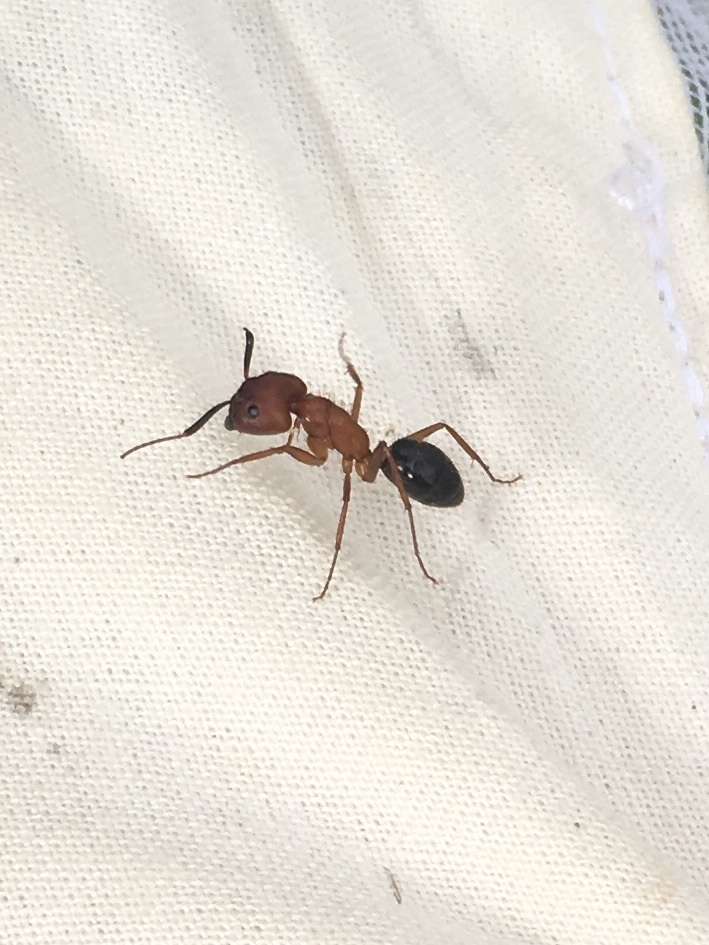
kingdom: Animalia
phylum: Arthropoda
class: Insecta
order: Hymenoptera
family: Formicidae
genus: Camponotus
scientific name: Camponotus floridanus
